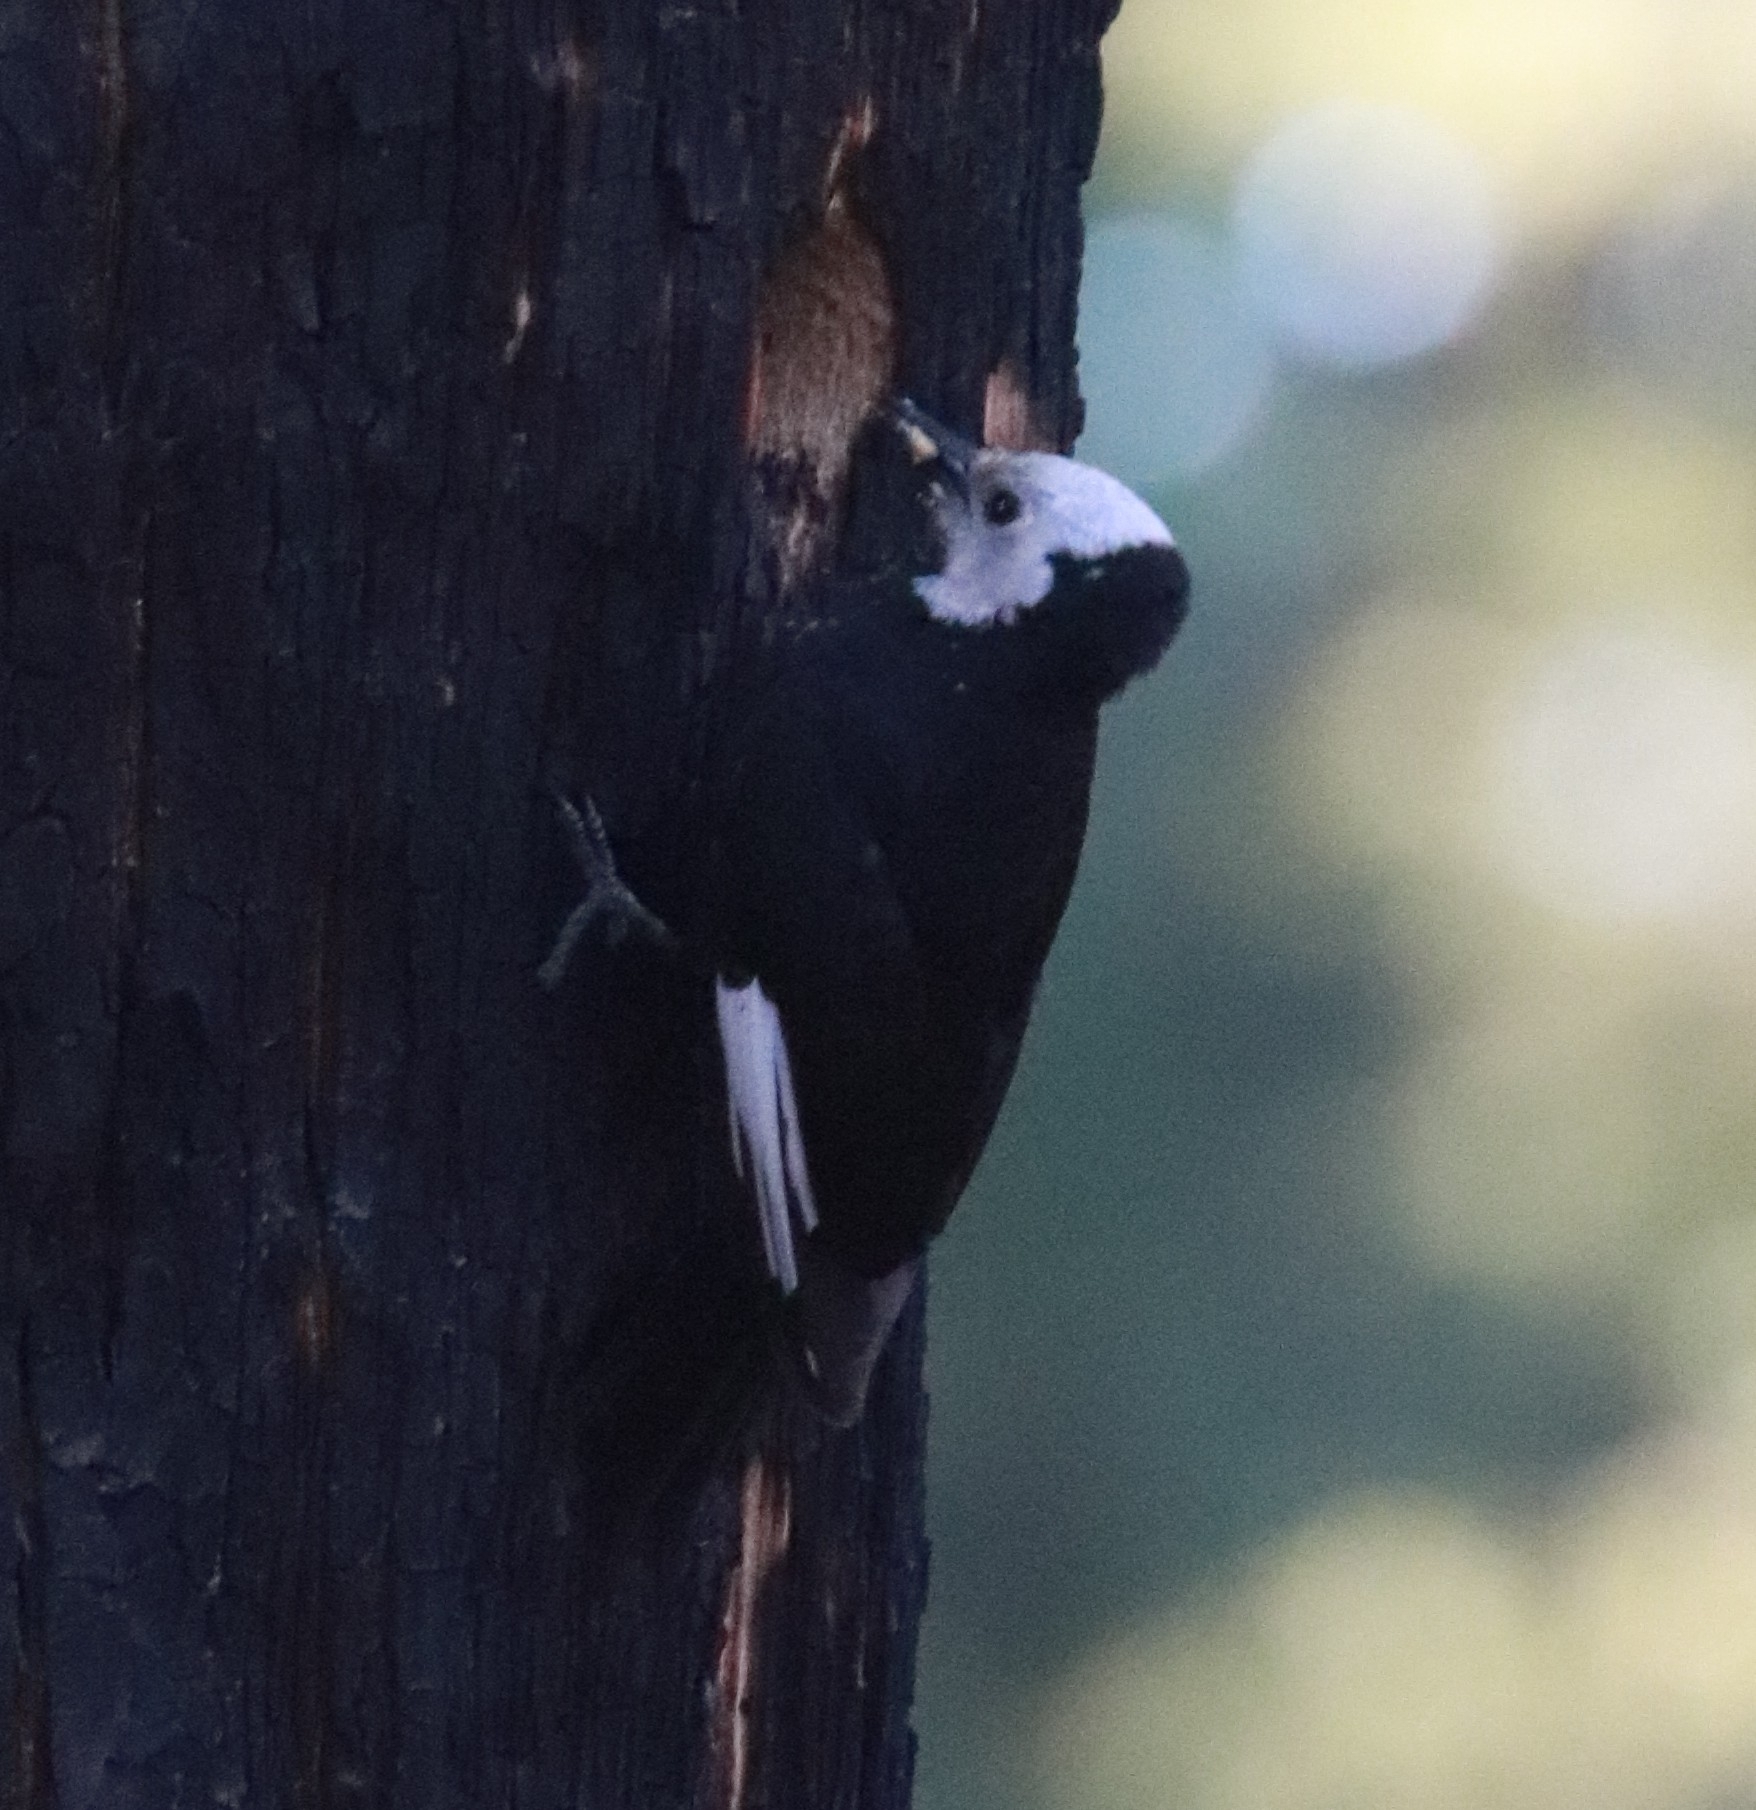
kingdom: Animalia
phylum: Chordata
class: Aves
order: Piciformes
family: Picidae
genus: Leuconotopicus
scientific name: Leuconotopicus albolarvatus
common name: White-headed woodpecker
